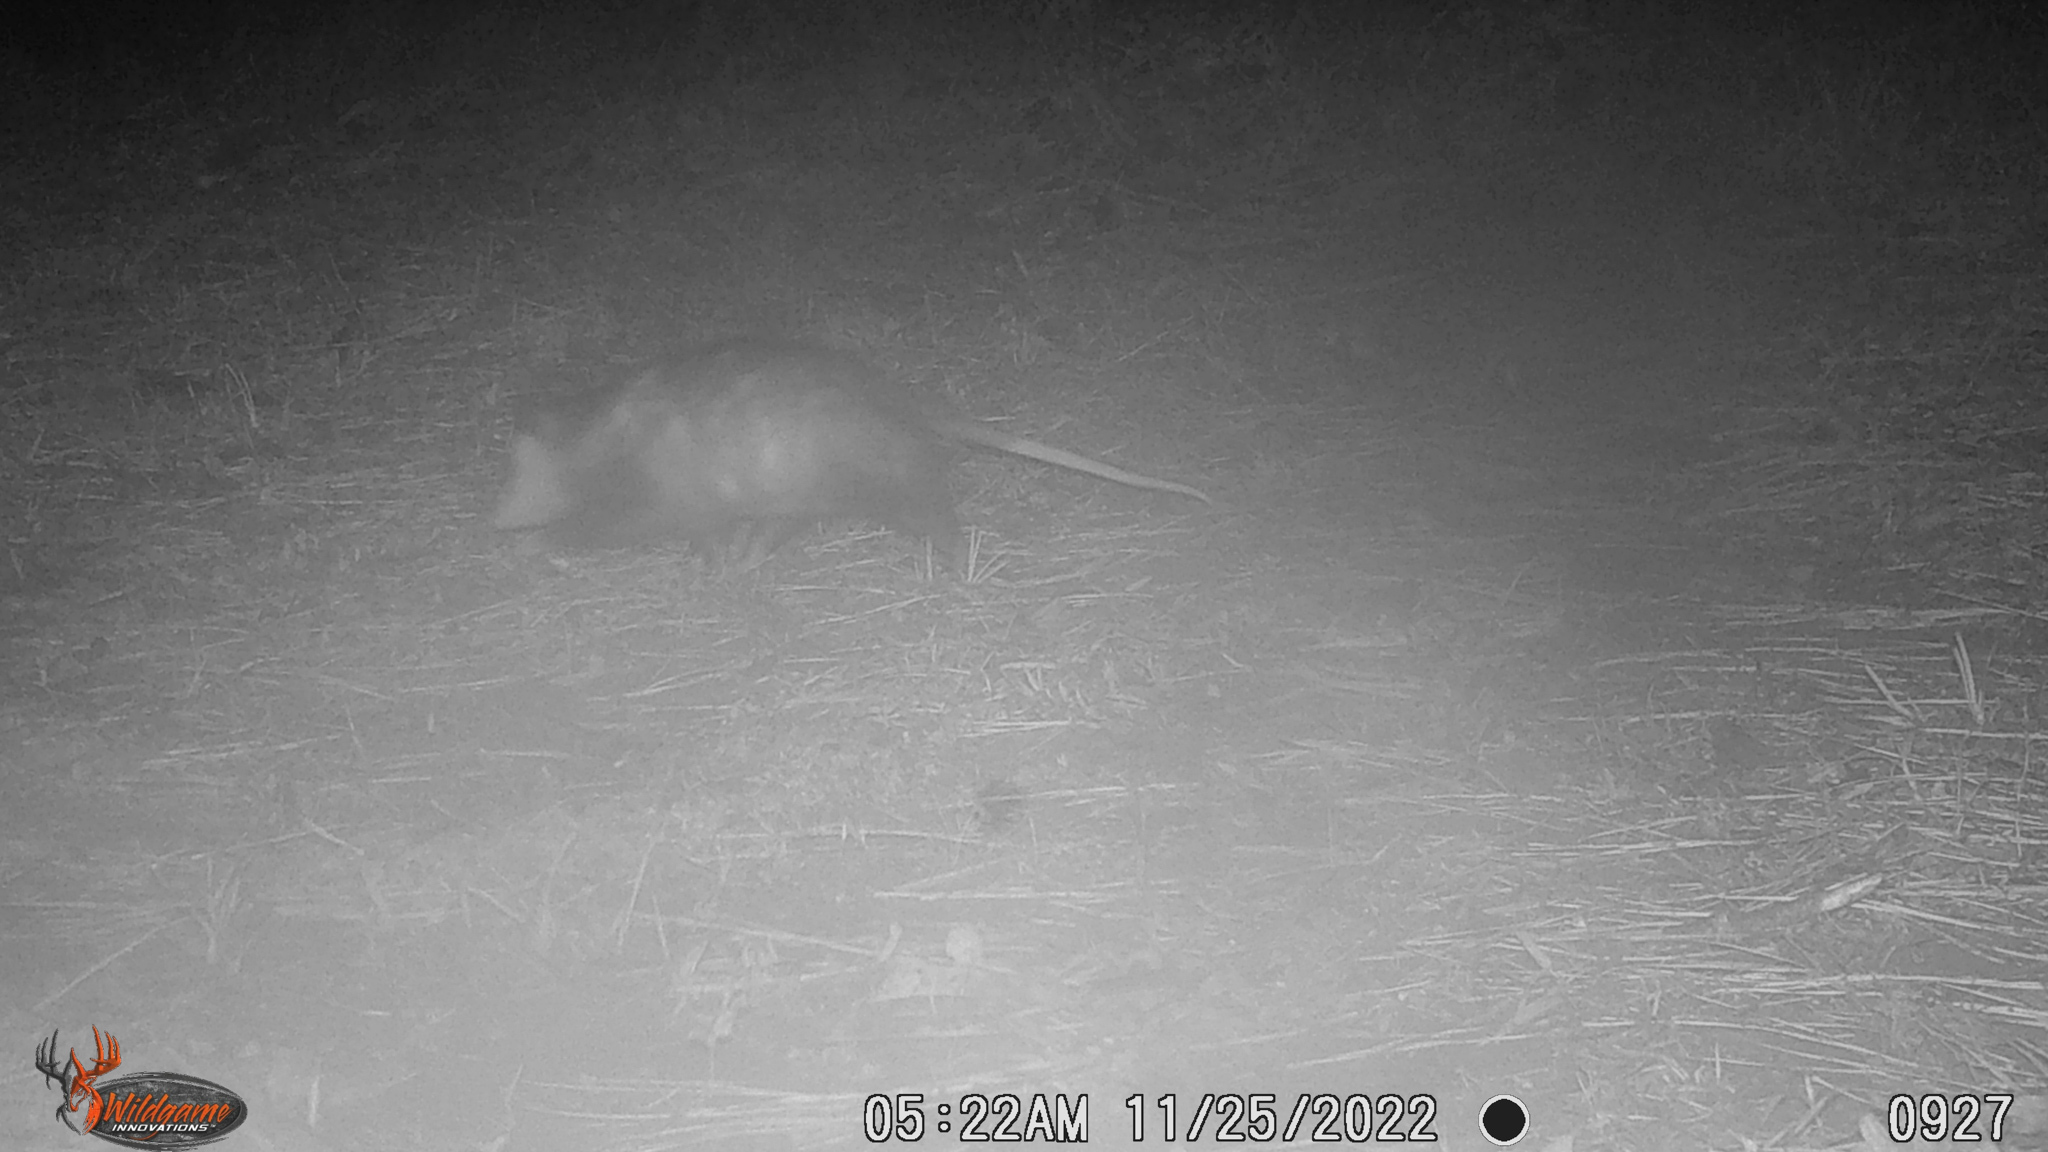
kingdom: Animalia
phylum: Chordata
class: Mammalia
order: Didelphimorphia
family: Didelphidae
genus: Didelphis
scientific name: Didelphis virginiana
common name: Virginia opossum
